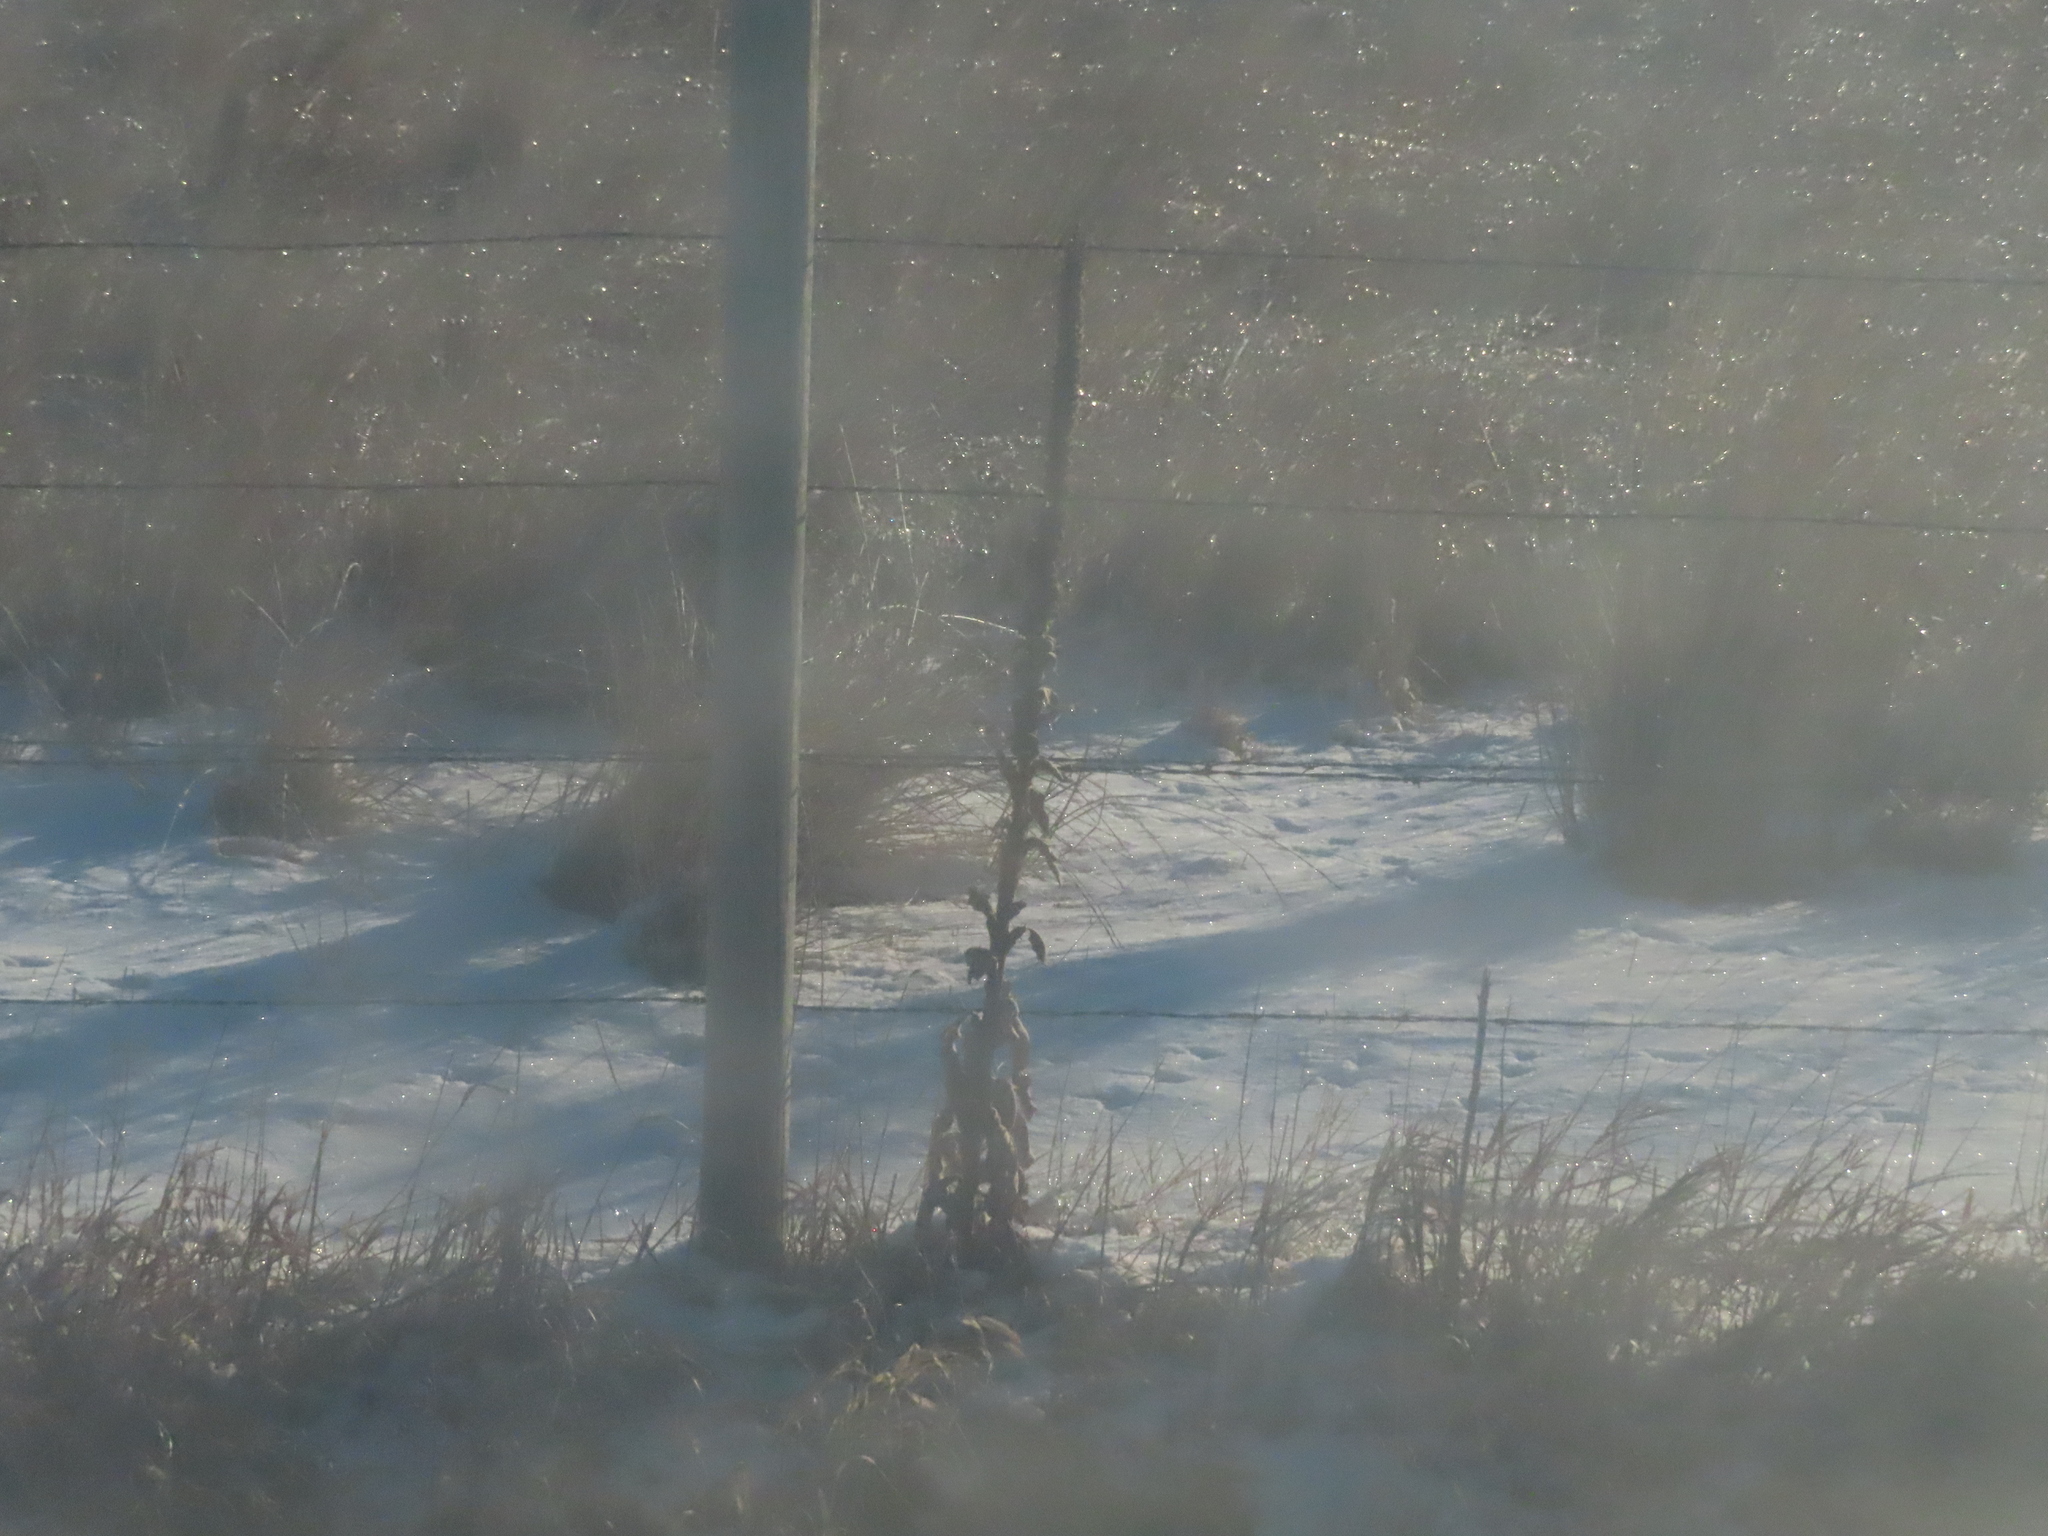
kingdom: Plantae
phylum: Tracheophyta
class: Magnoliopsida
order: Lamiales
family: Scrophulariaceae
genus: Verbascum
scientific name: Verbascum thapsus
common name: Common mullein
